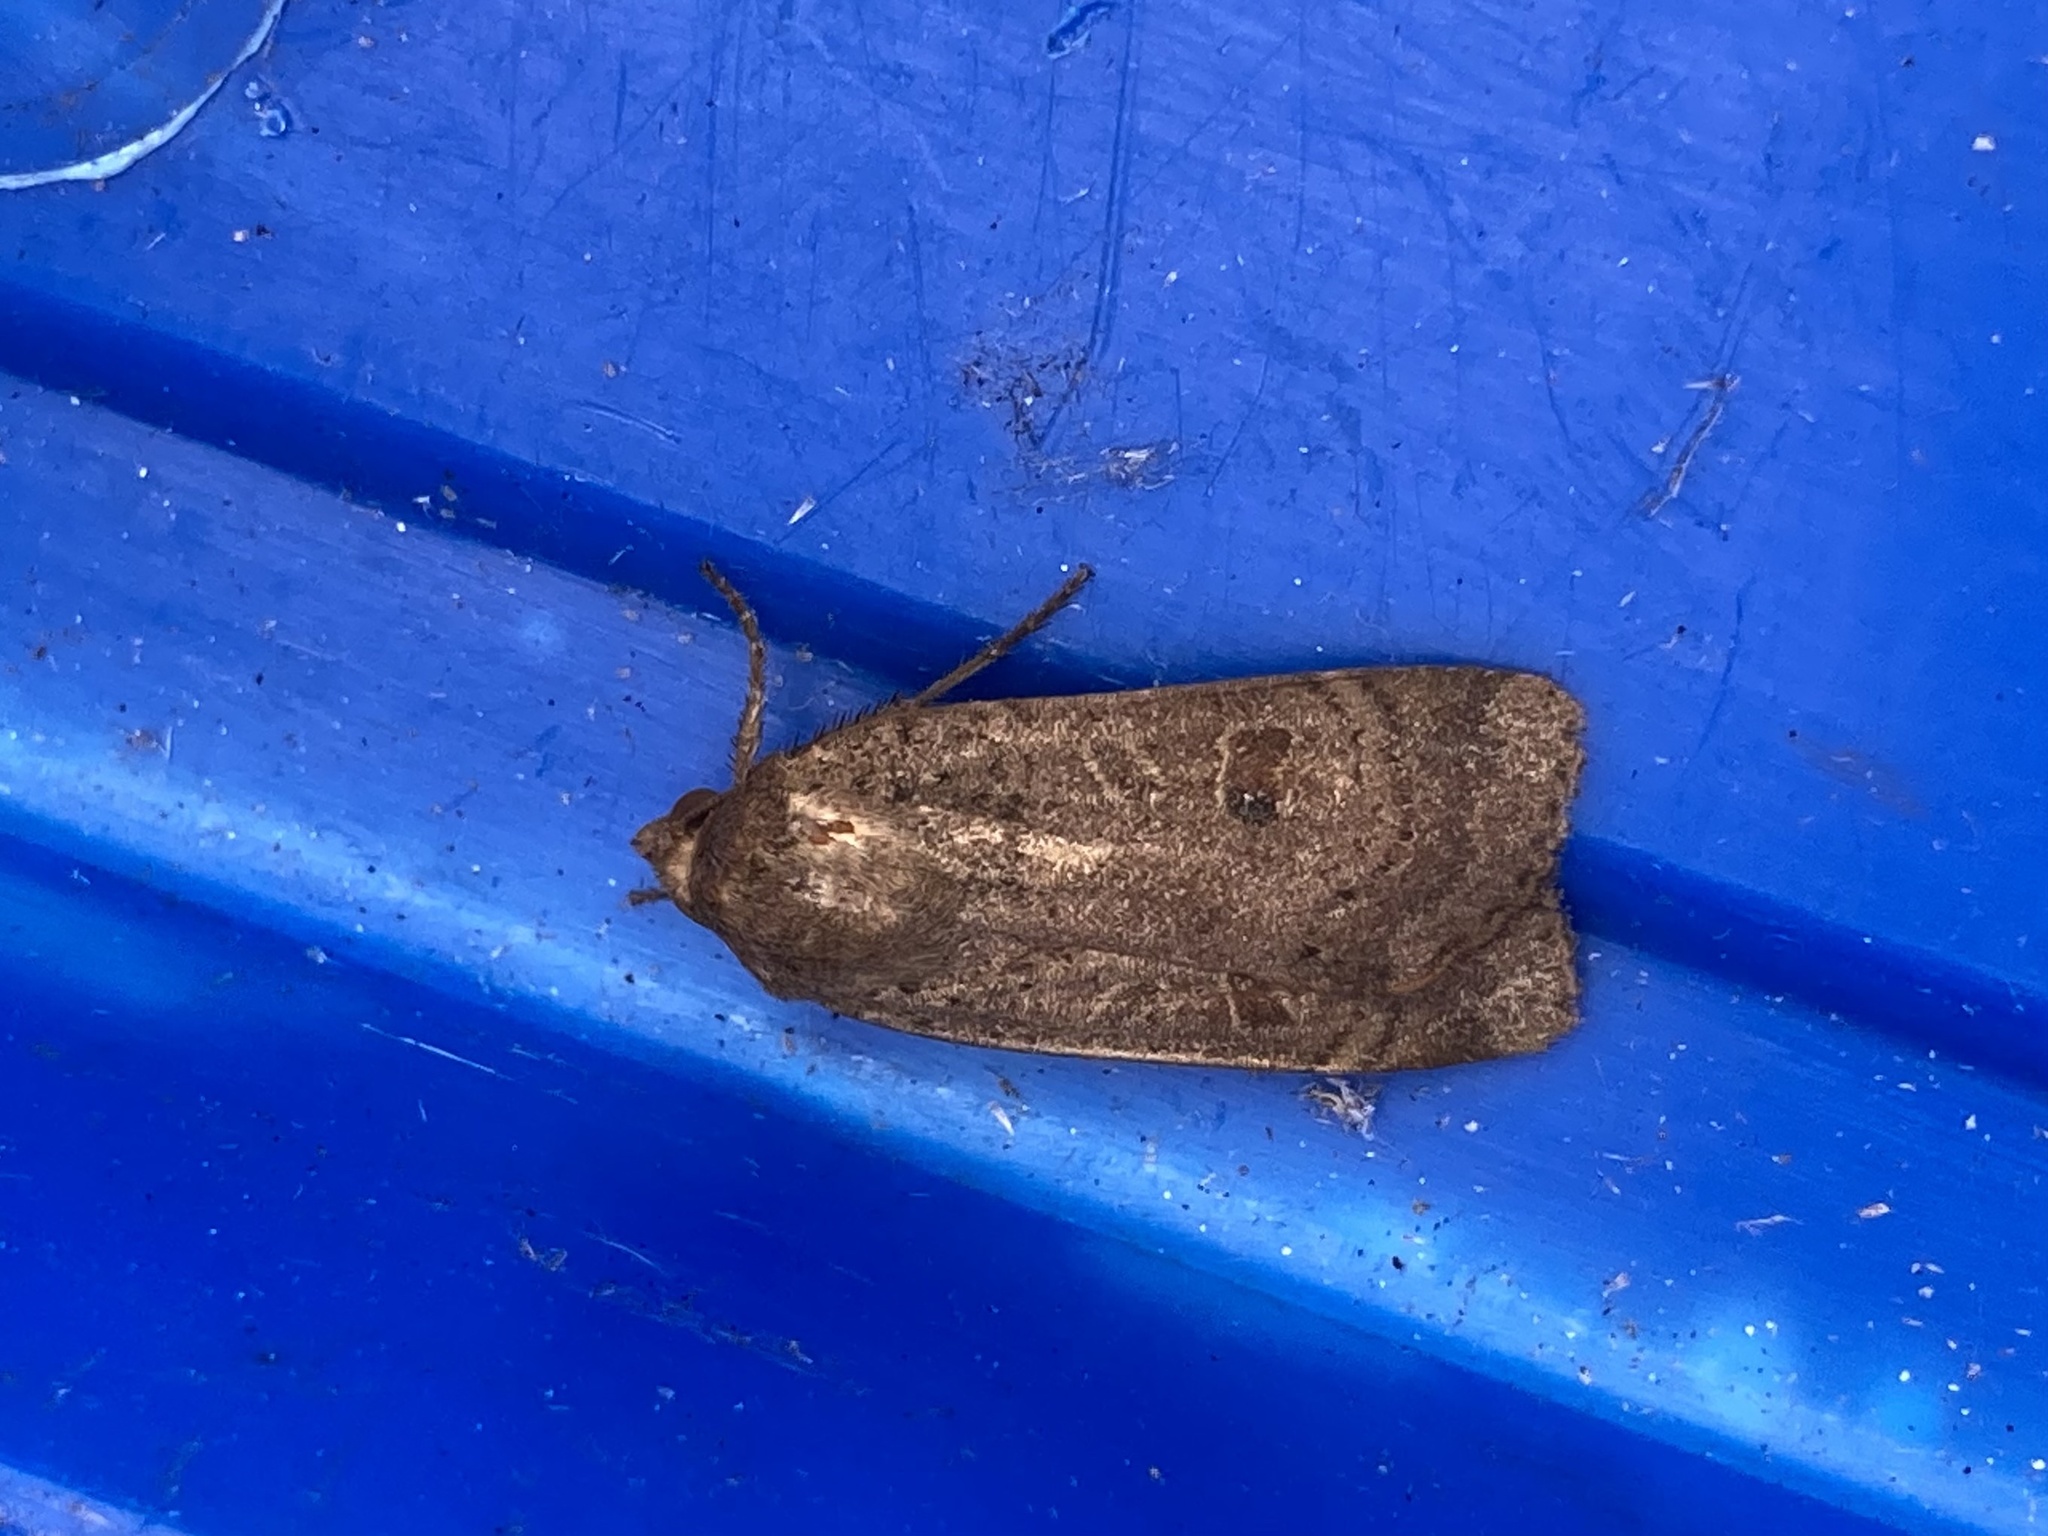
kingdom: Animalia
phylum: Arthropoda
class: Insecta
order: Lepidoptera
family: Noctuidae
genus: Noctua
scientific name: Noctua comes
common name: Lesser yellow underwing
